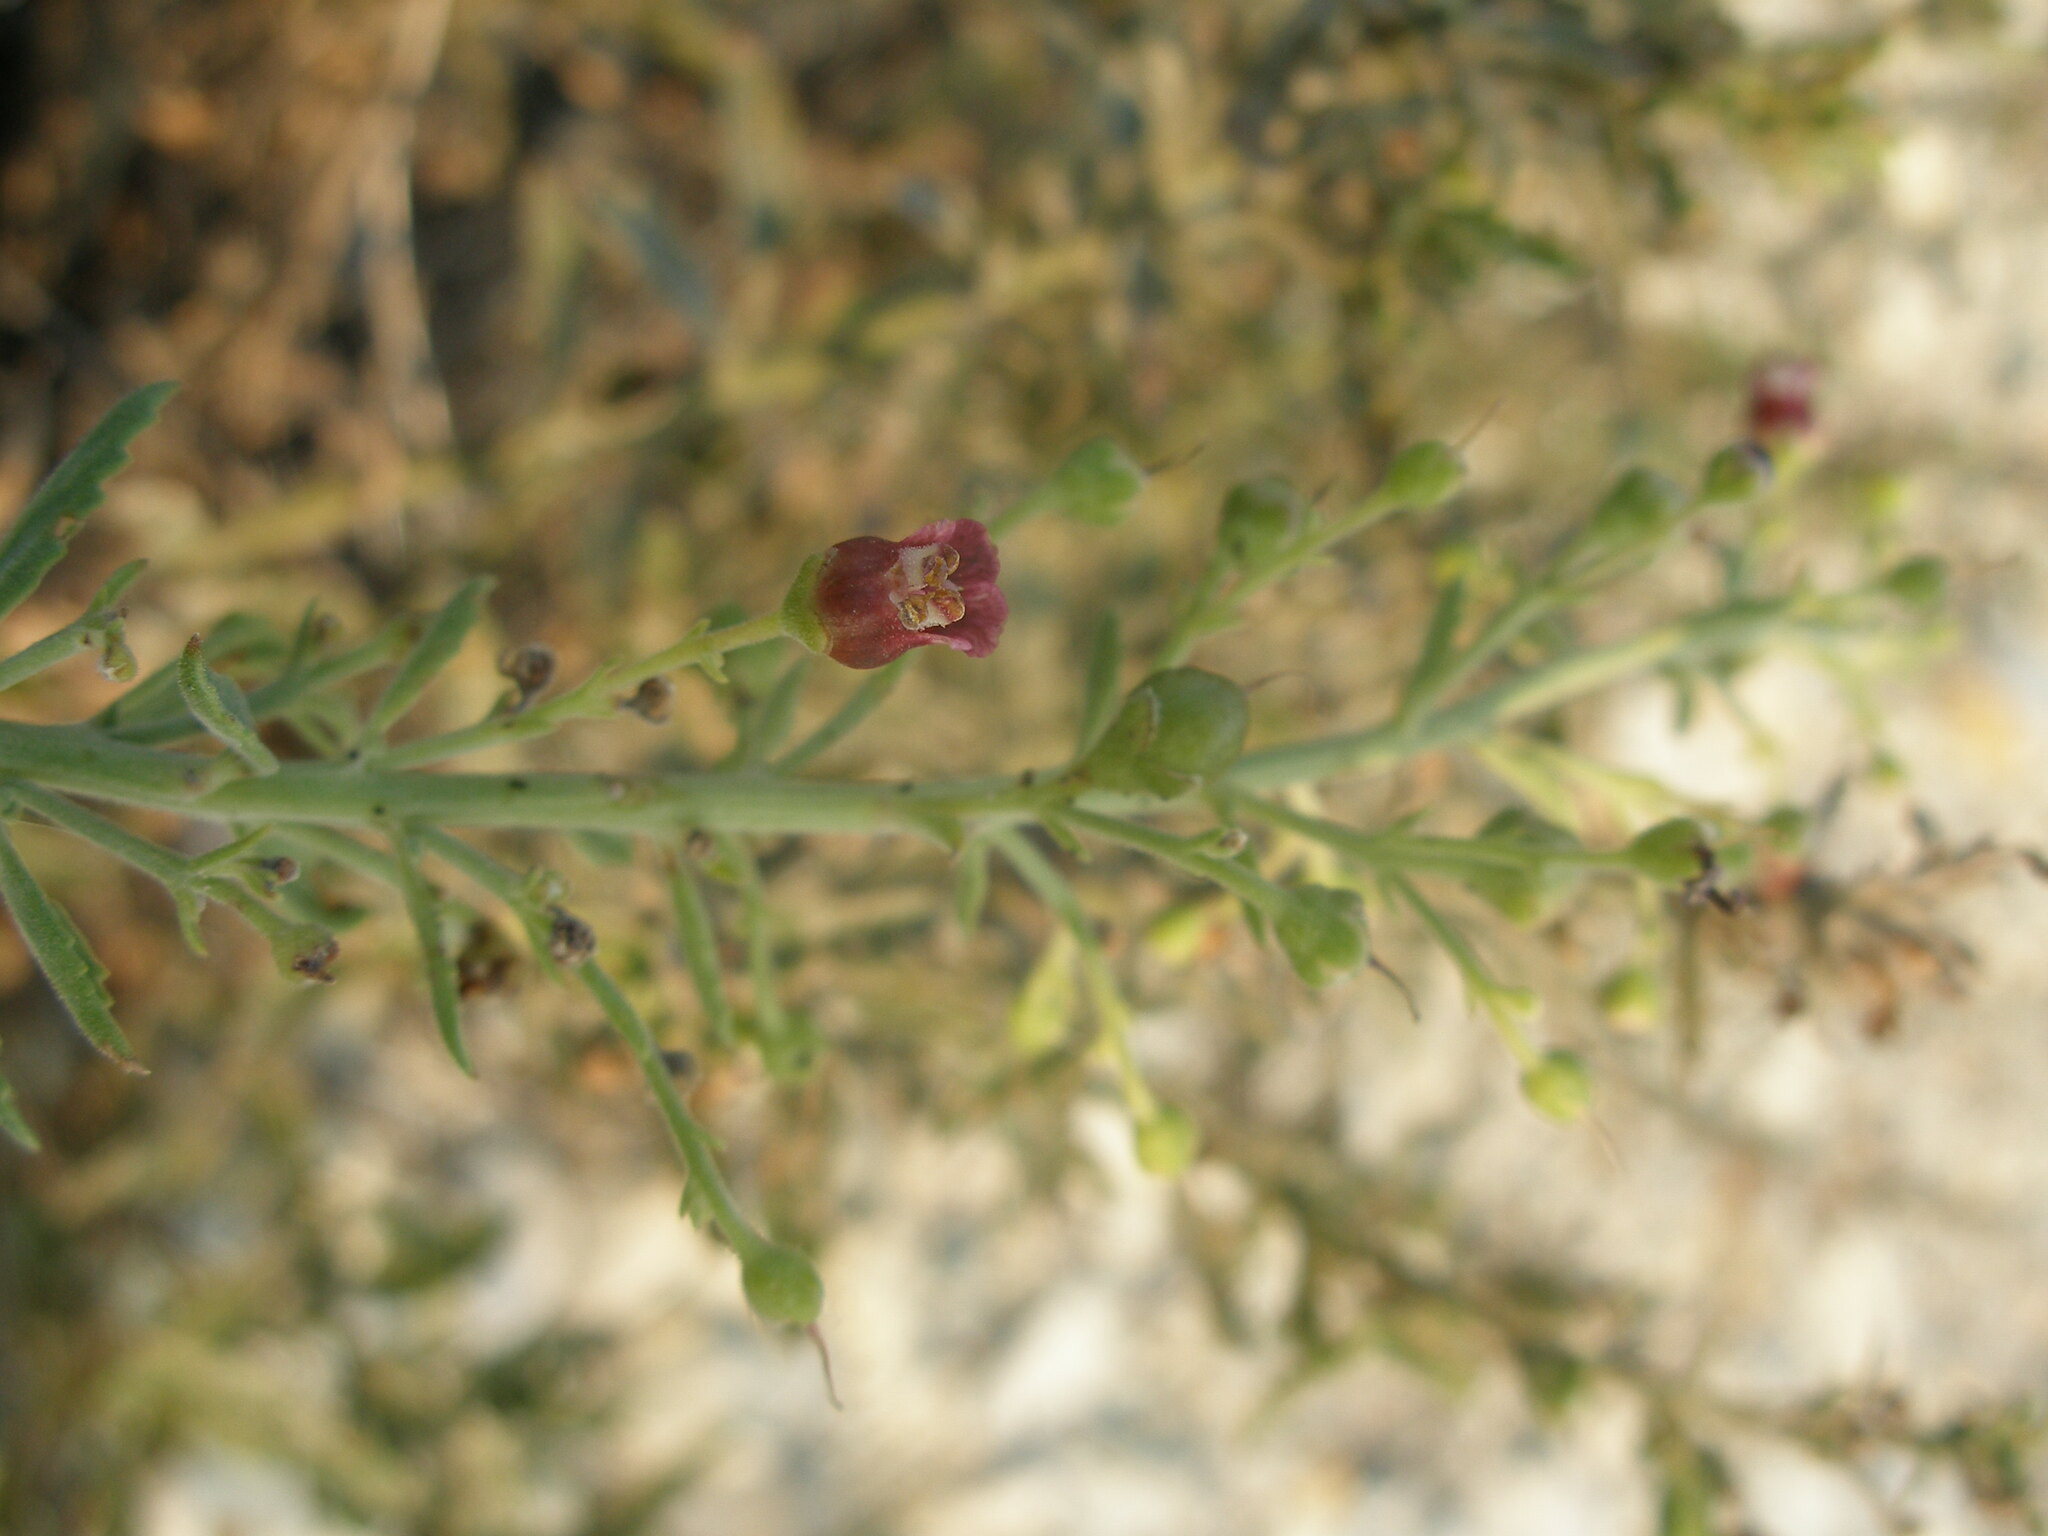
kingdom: Plantae
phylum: Tracheophyta
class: Magnoliopsida
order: Lamiales
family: Scrophulariaceae
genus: Scrophularia
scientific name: Scrophularia cretacea
